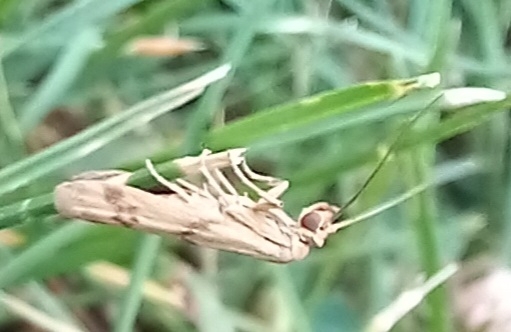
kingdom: Animalia
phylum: Arthropoda
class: Insecta
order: Lepidoptera
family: Pyralidae
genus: Homoeosoma
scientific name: Homoeosoma sinuella
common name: Twin-barred knot-horn
